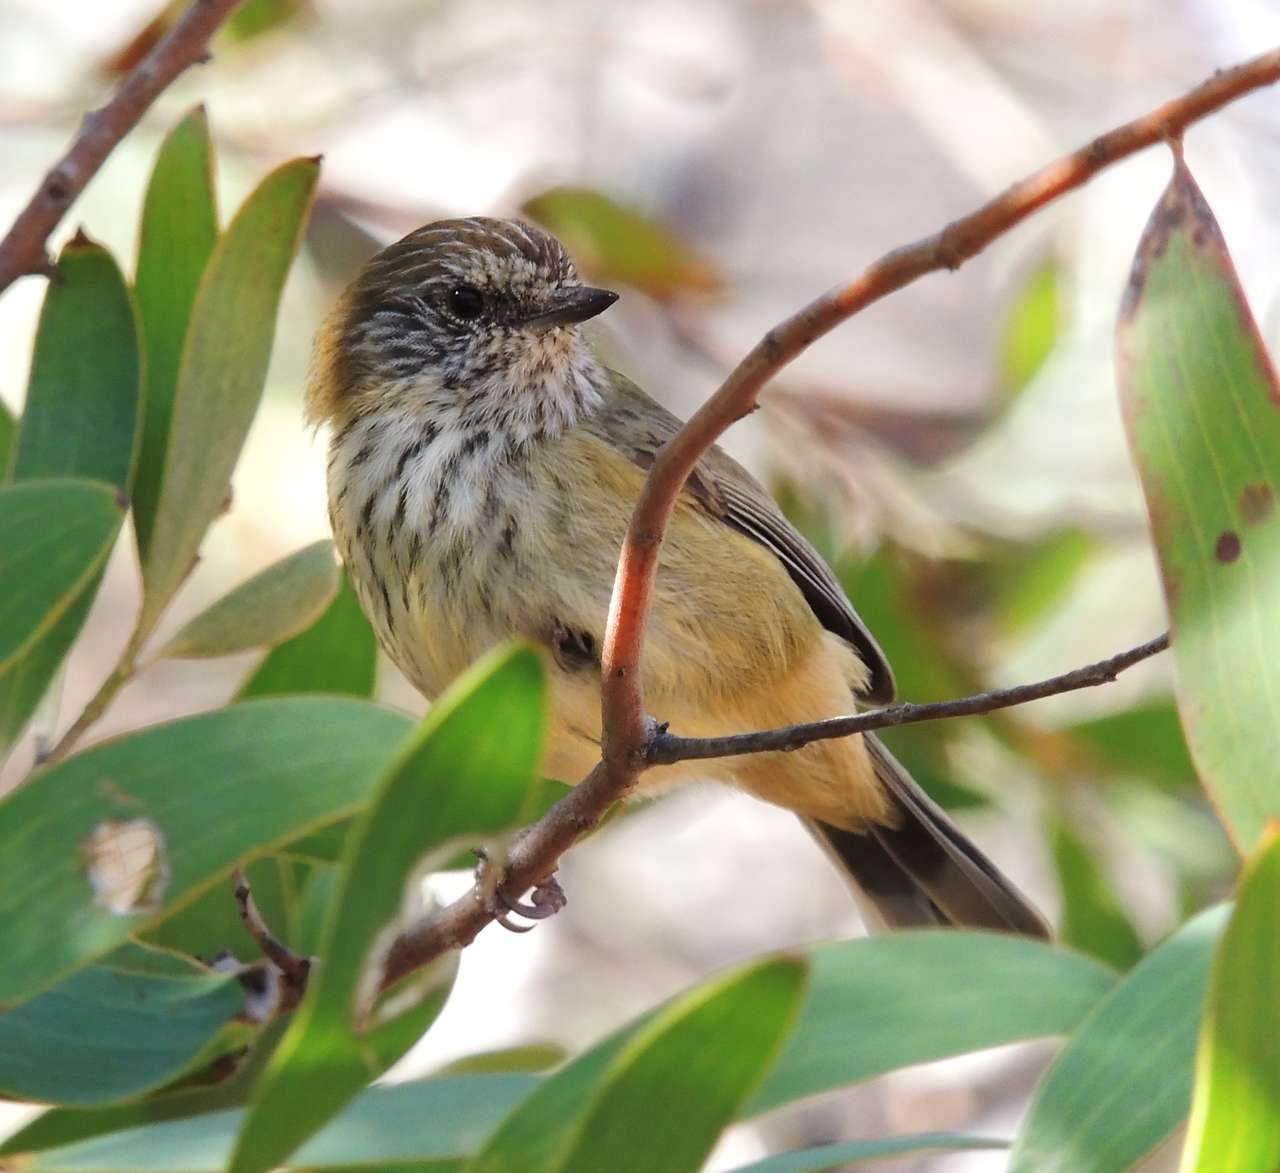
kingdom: Animalia
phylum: Chordata
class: Aves
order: Passeriformes
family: Acanthizidae
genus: Acanthiza
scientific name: Acanthiza lineata
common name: Striated thornbill
